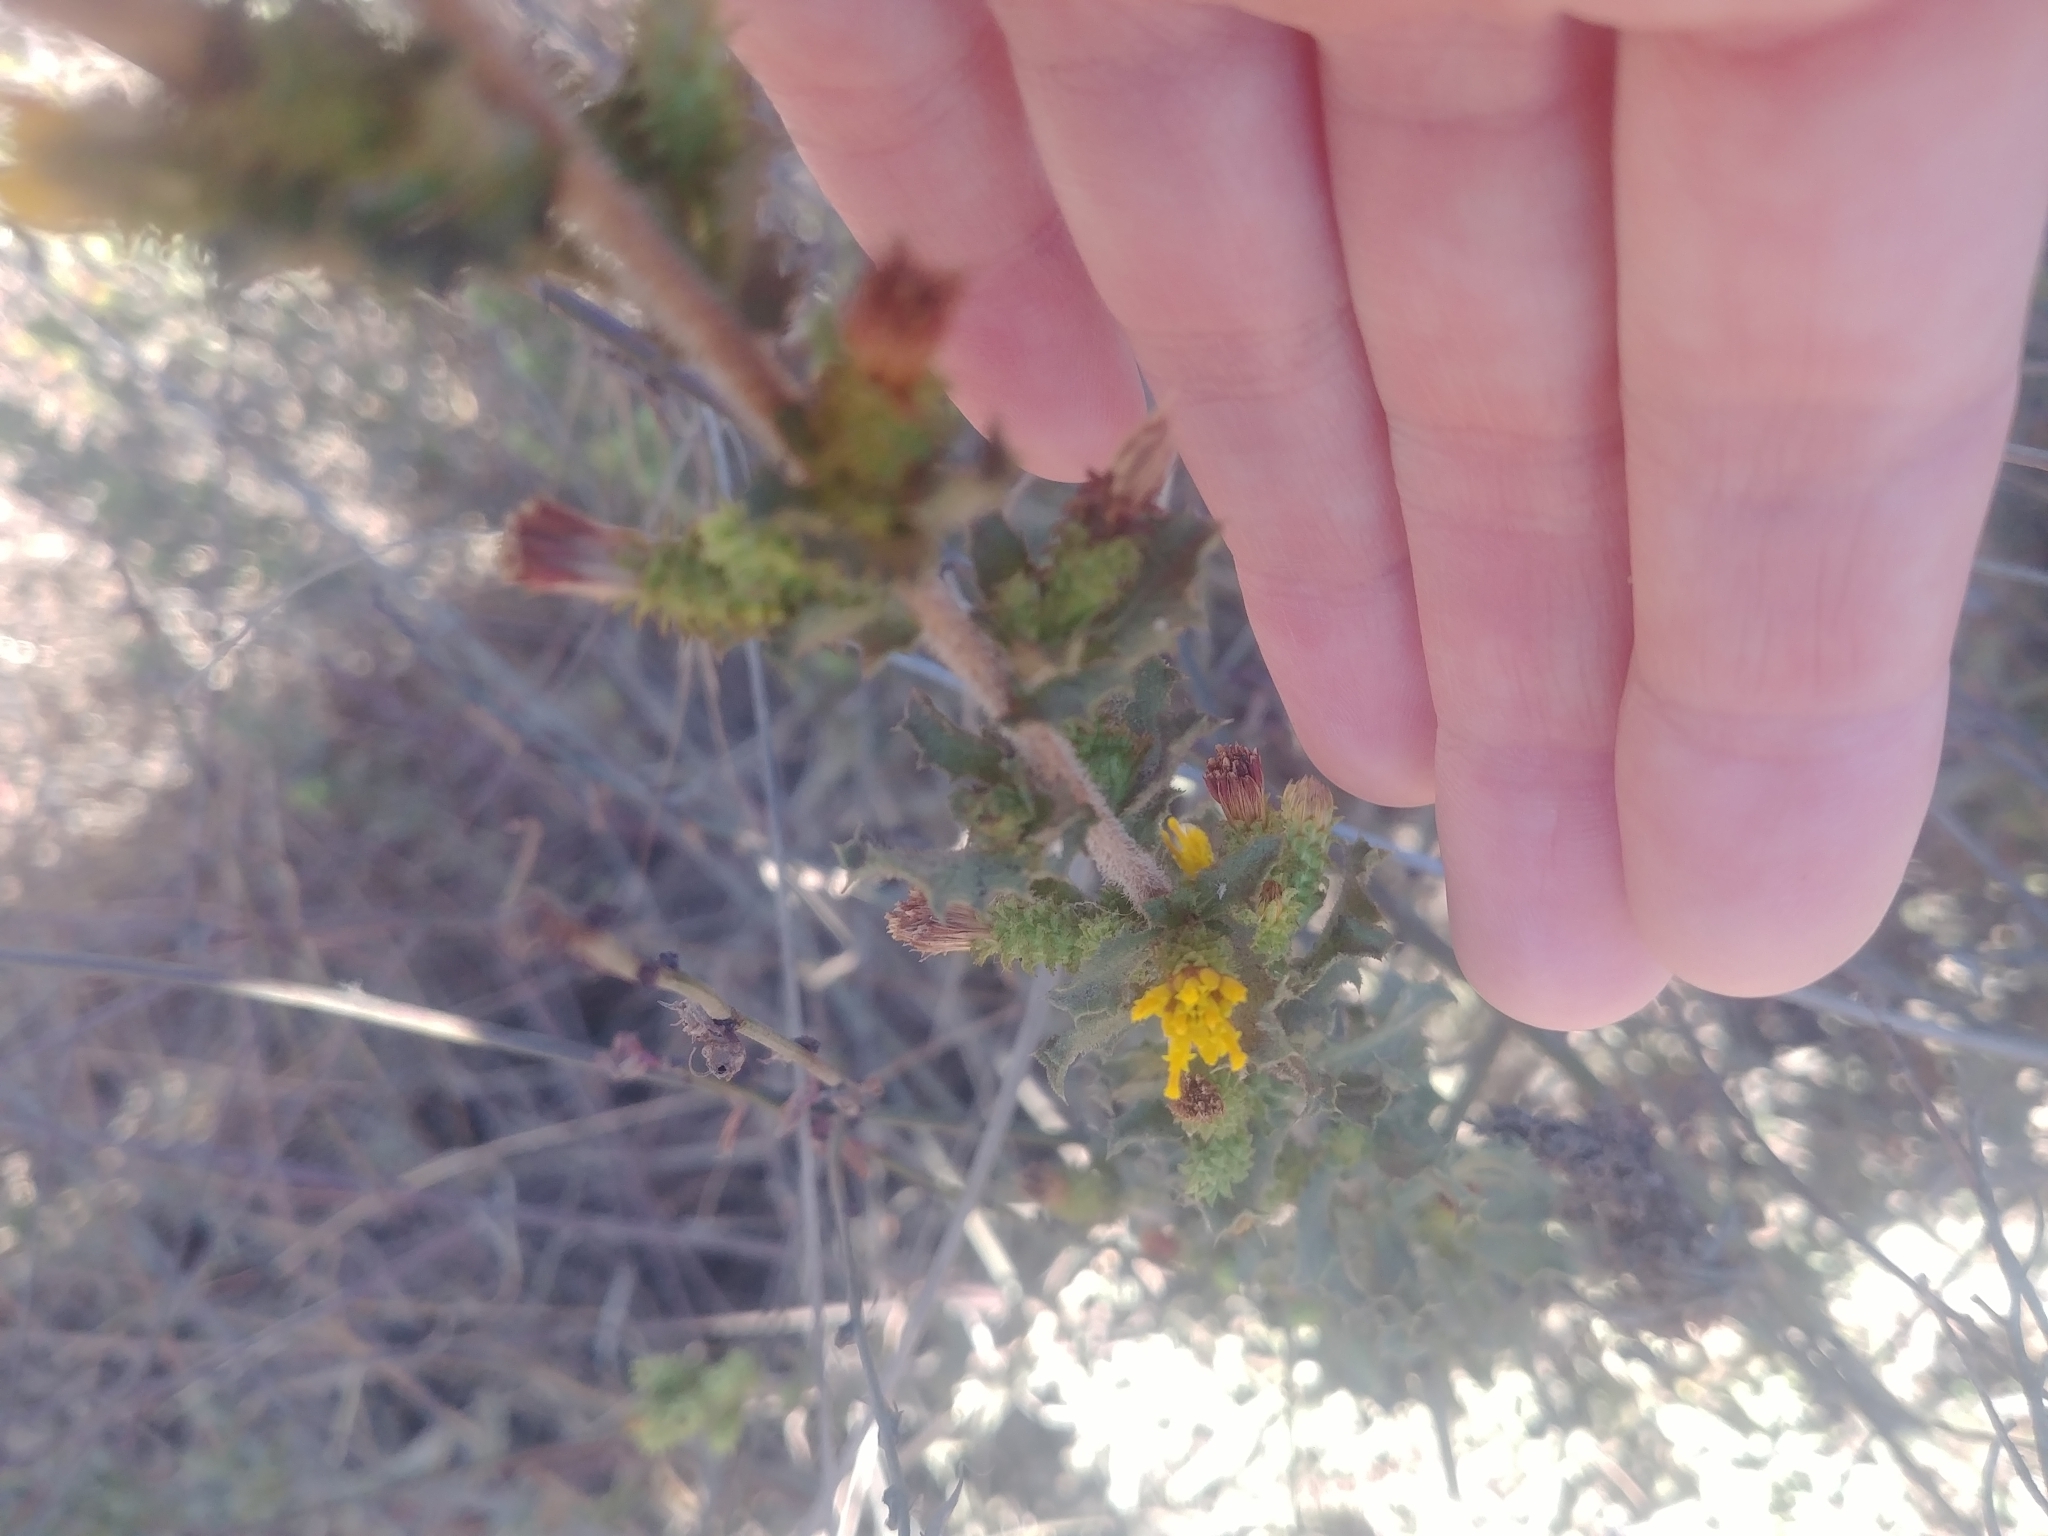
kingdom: Plantae
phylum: Tracheophyta
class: Magnoliopsida
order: Asterales
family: Asteraceae
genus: Hazardia
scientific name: Hazardia squarrosa
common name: Saw-tooth goldenbush
